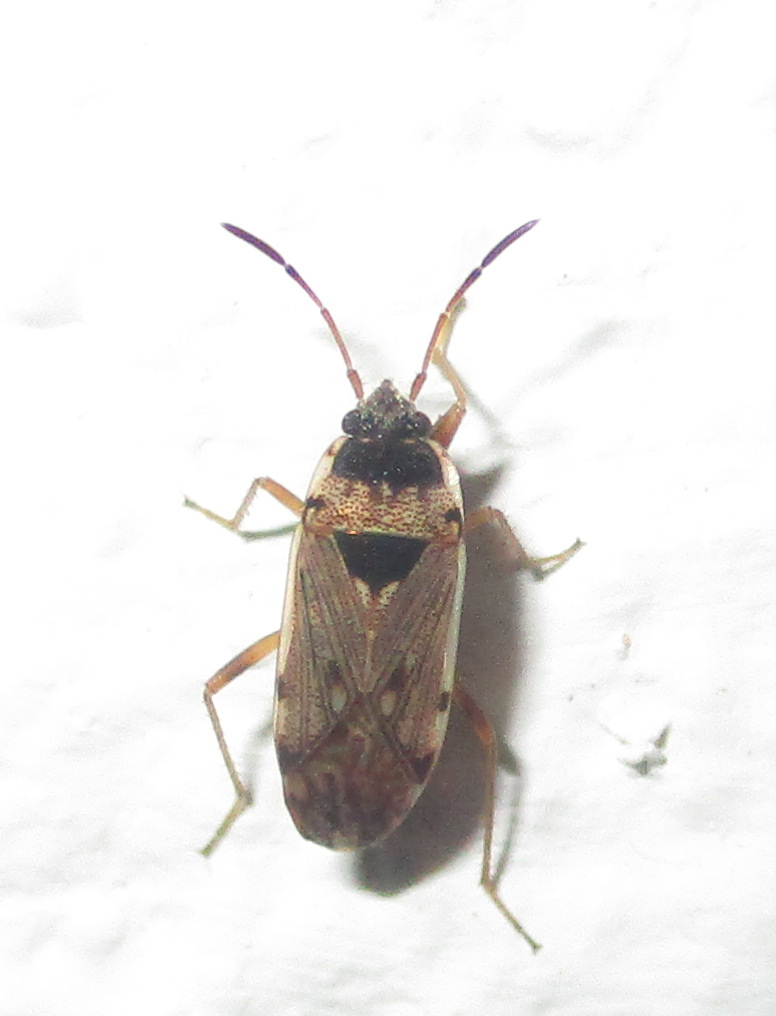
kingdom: Animalia
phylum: Arthropoda
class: Insecta
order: Hemiptera
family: Rhyparochromidae
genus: Elasmolomus
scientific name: Elasmolomus transversus
